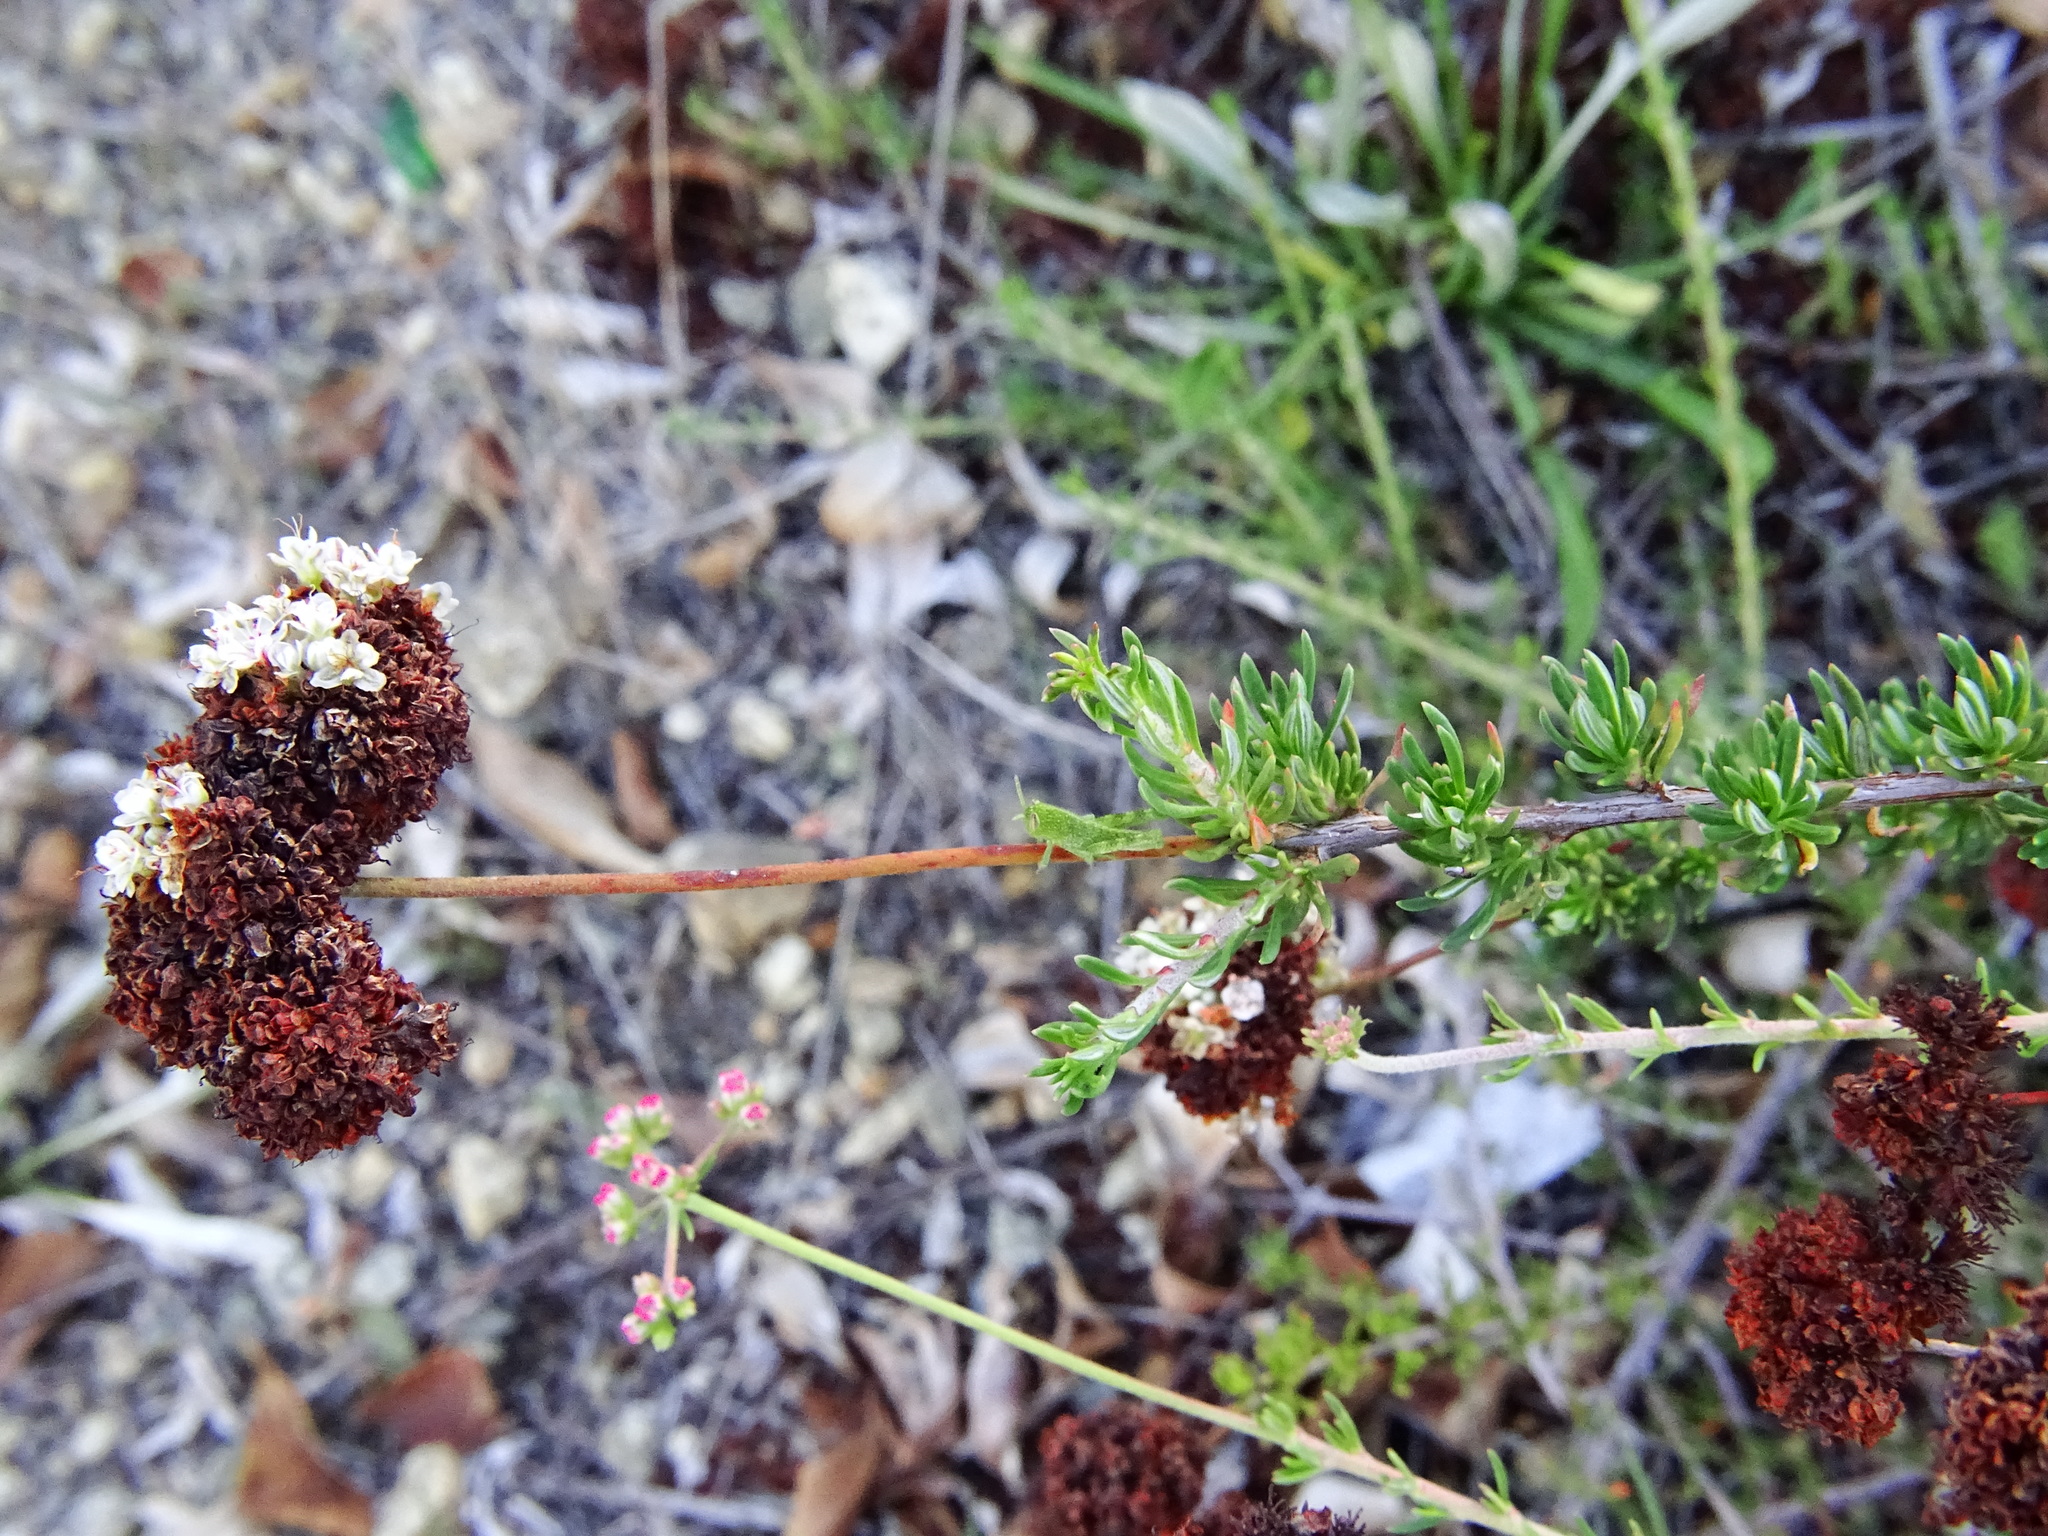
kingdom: Plantae
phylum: Tracheophyta
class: Magnoliopsida
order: Caryophyllales
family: Polygonaceae
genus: Eriogonum
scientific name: Eriogonum fasciculatum
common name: California wild buckwheat
